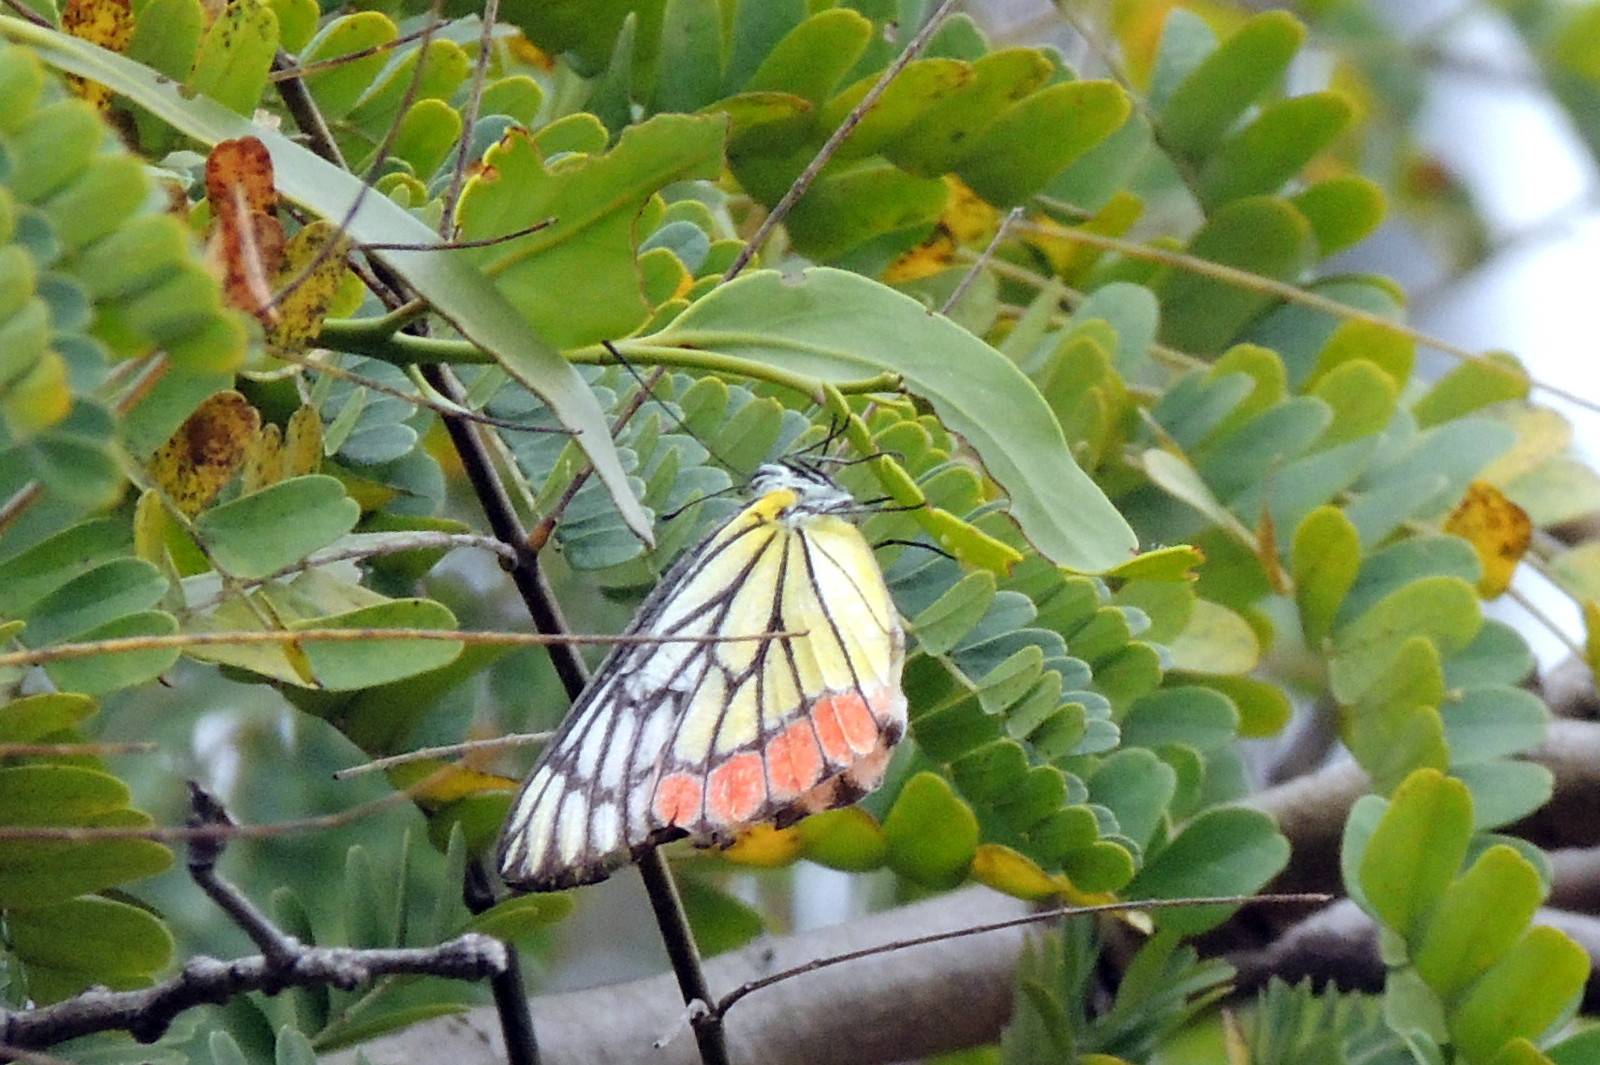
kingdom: Animalia
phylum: Arthropoda
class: Insecta
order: Lepidoptera
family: Pieridae
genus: Delias
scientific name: Delias eucharis
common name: Common jezebel
